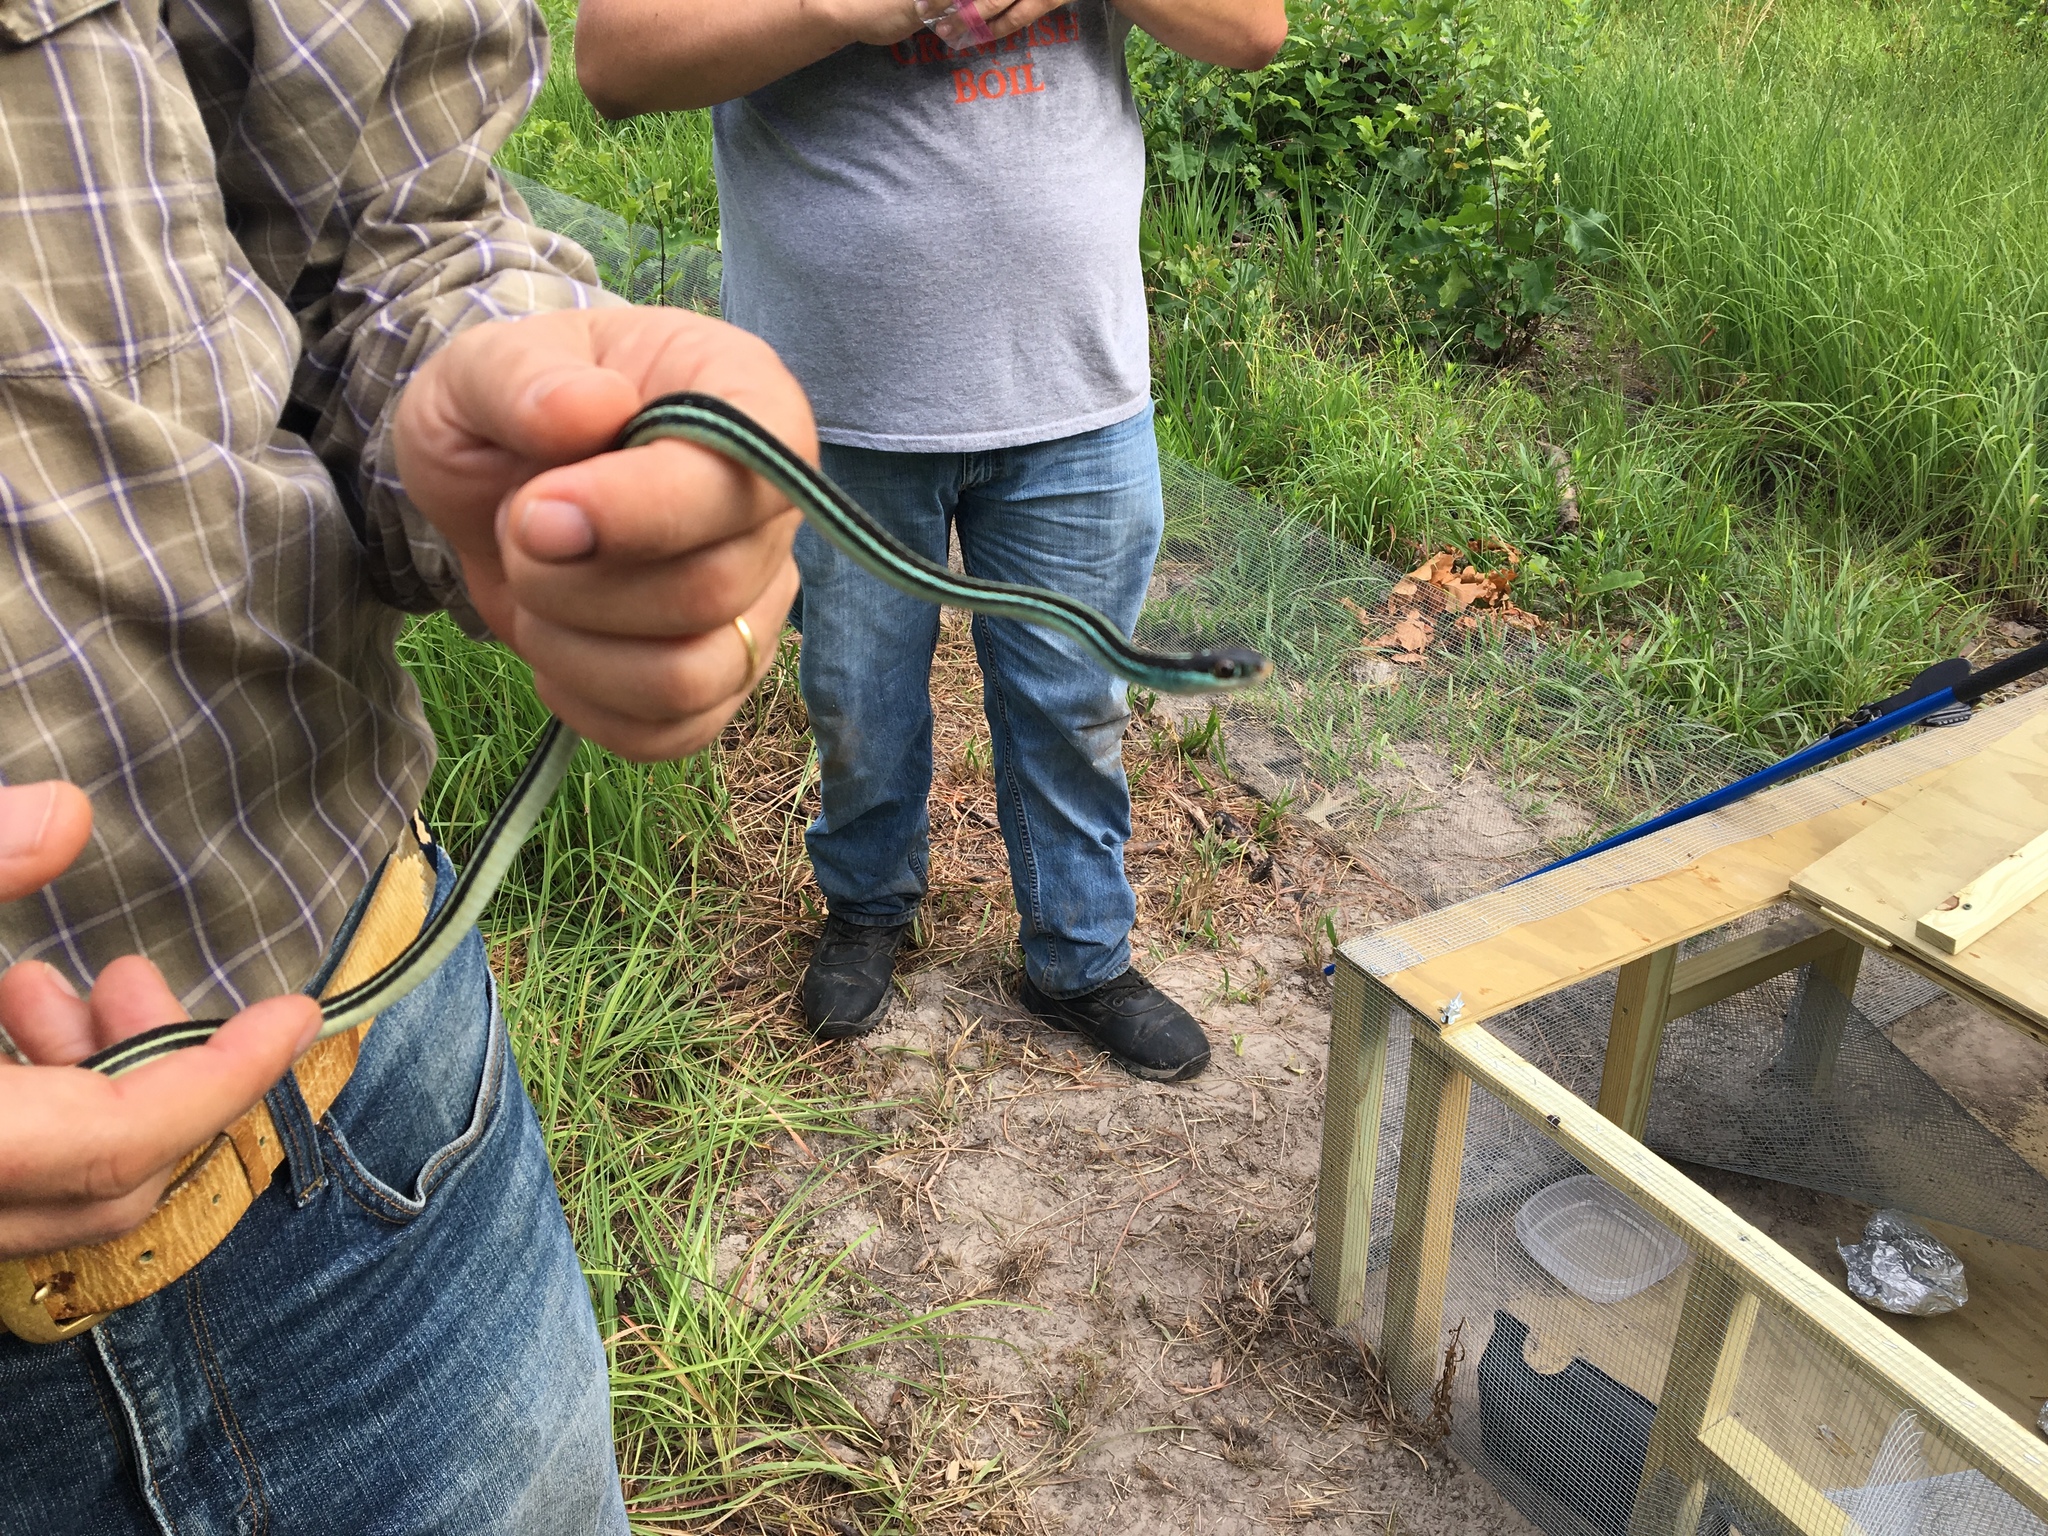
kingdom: Animalia
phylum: Chordata
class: Squamata
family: Colubridae
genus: Thamnophis
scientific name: Thamnophis proximus
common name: Western ribbon snake
